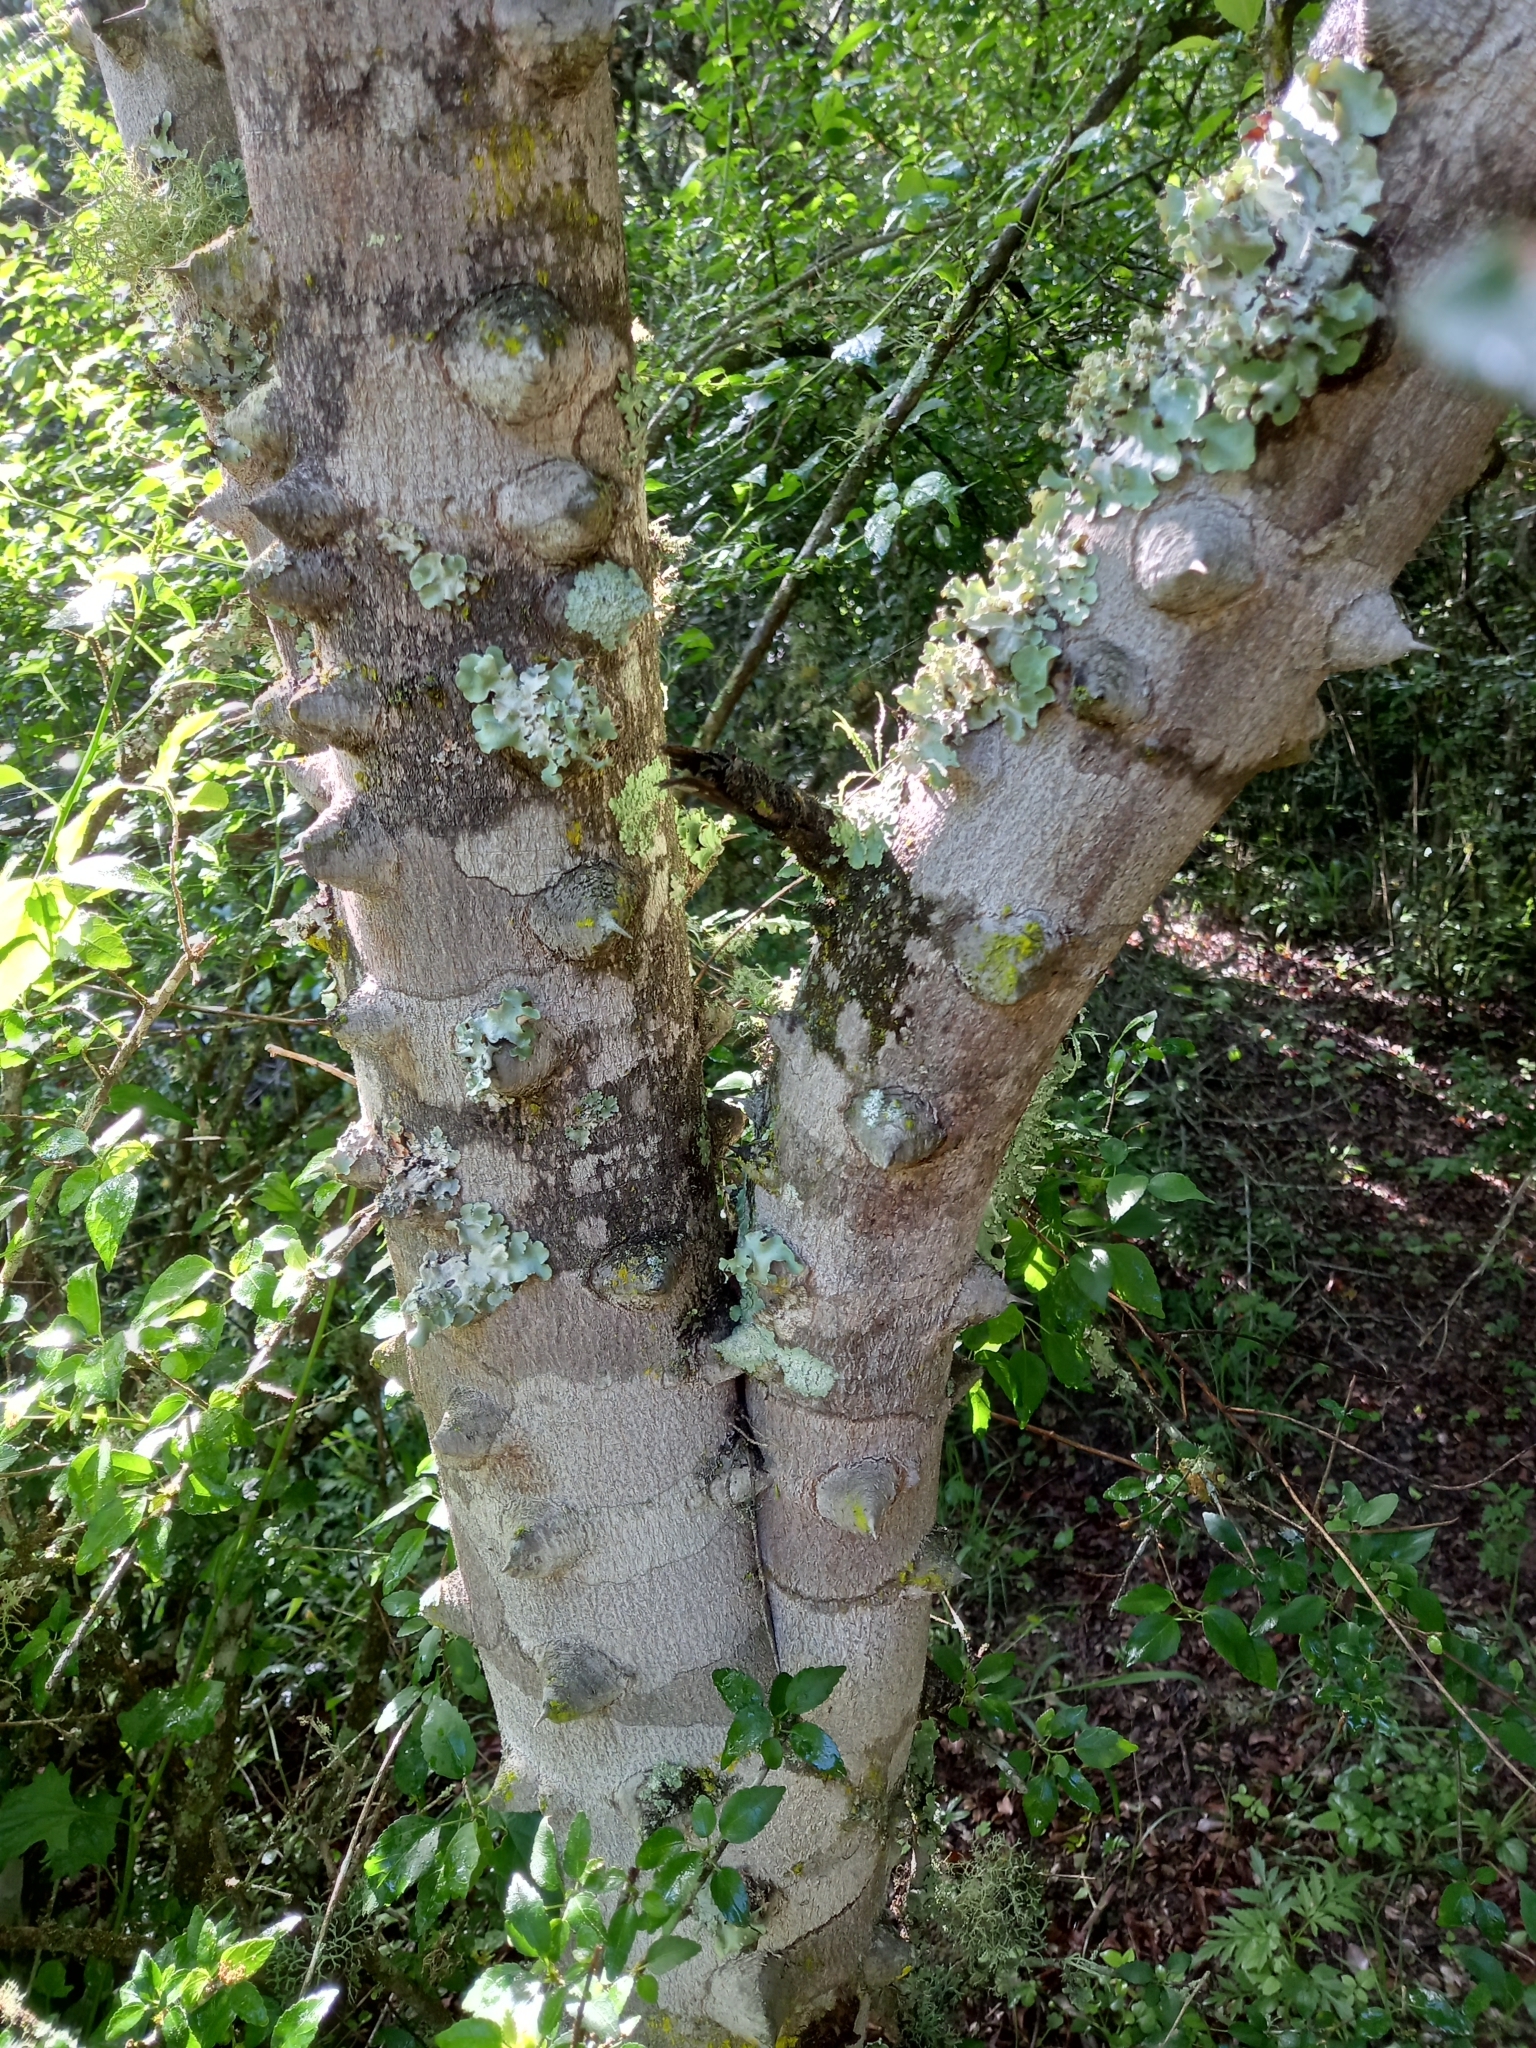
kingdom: Plantae
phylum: Tracheophyta
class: Magnoliopsida
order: Sapindales
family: Rutaceae
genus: Zanthoxylum
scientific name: Zanthoxylum capense
